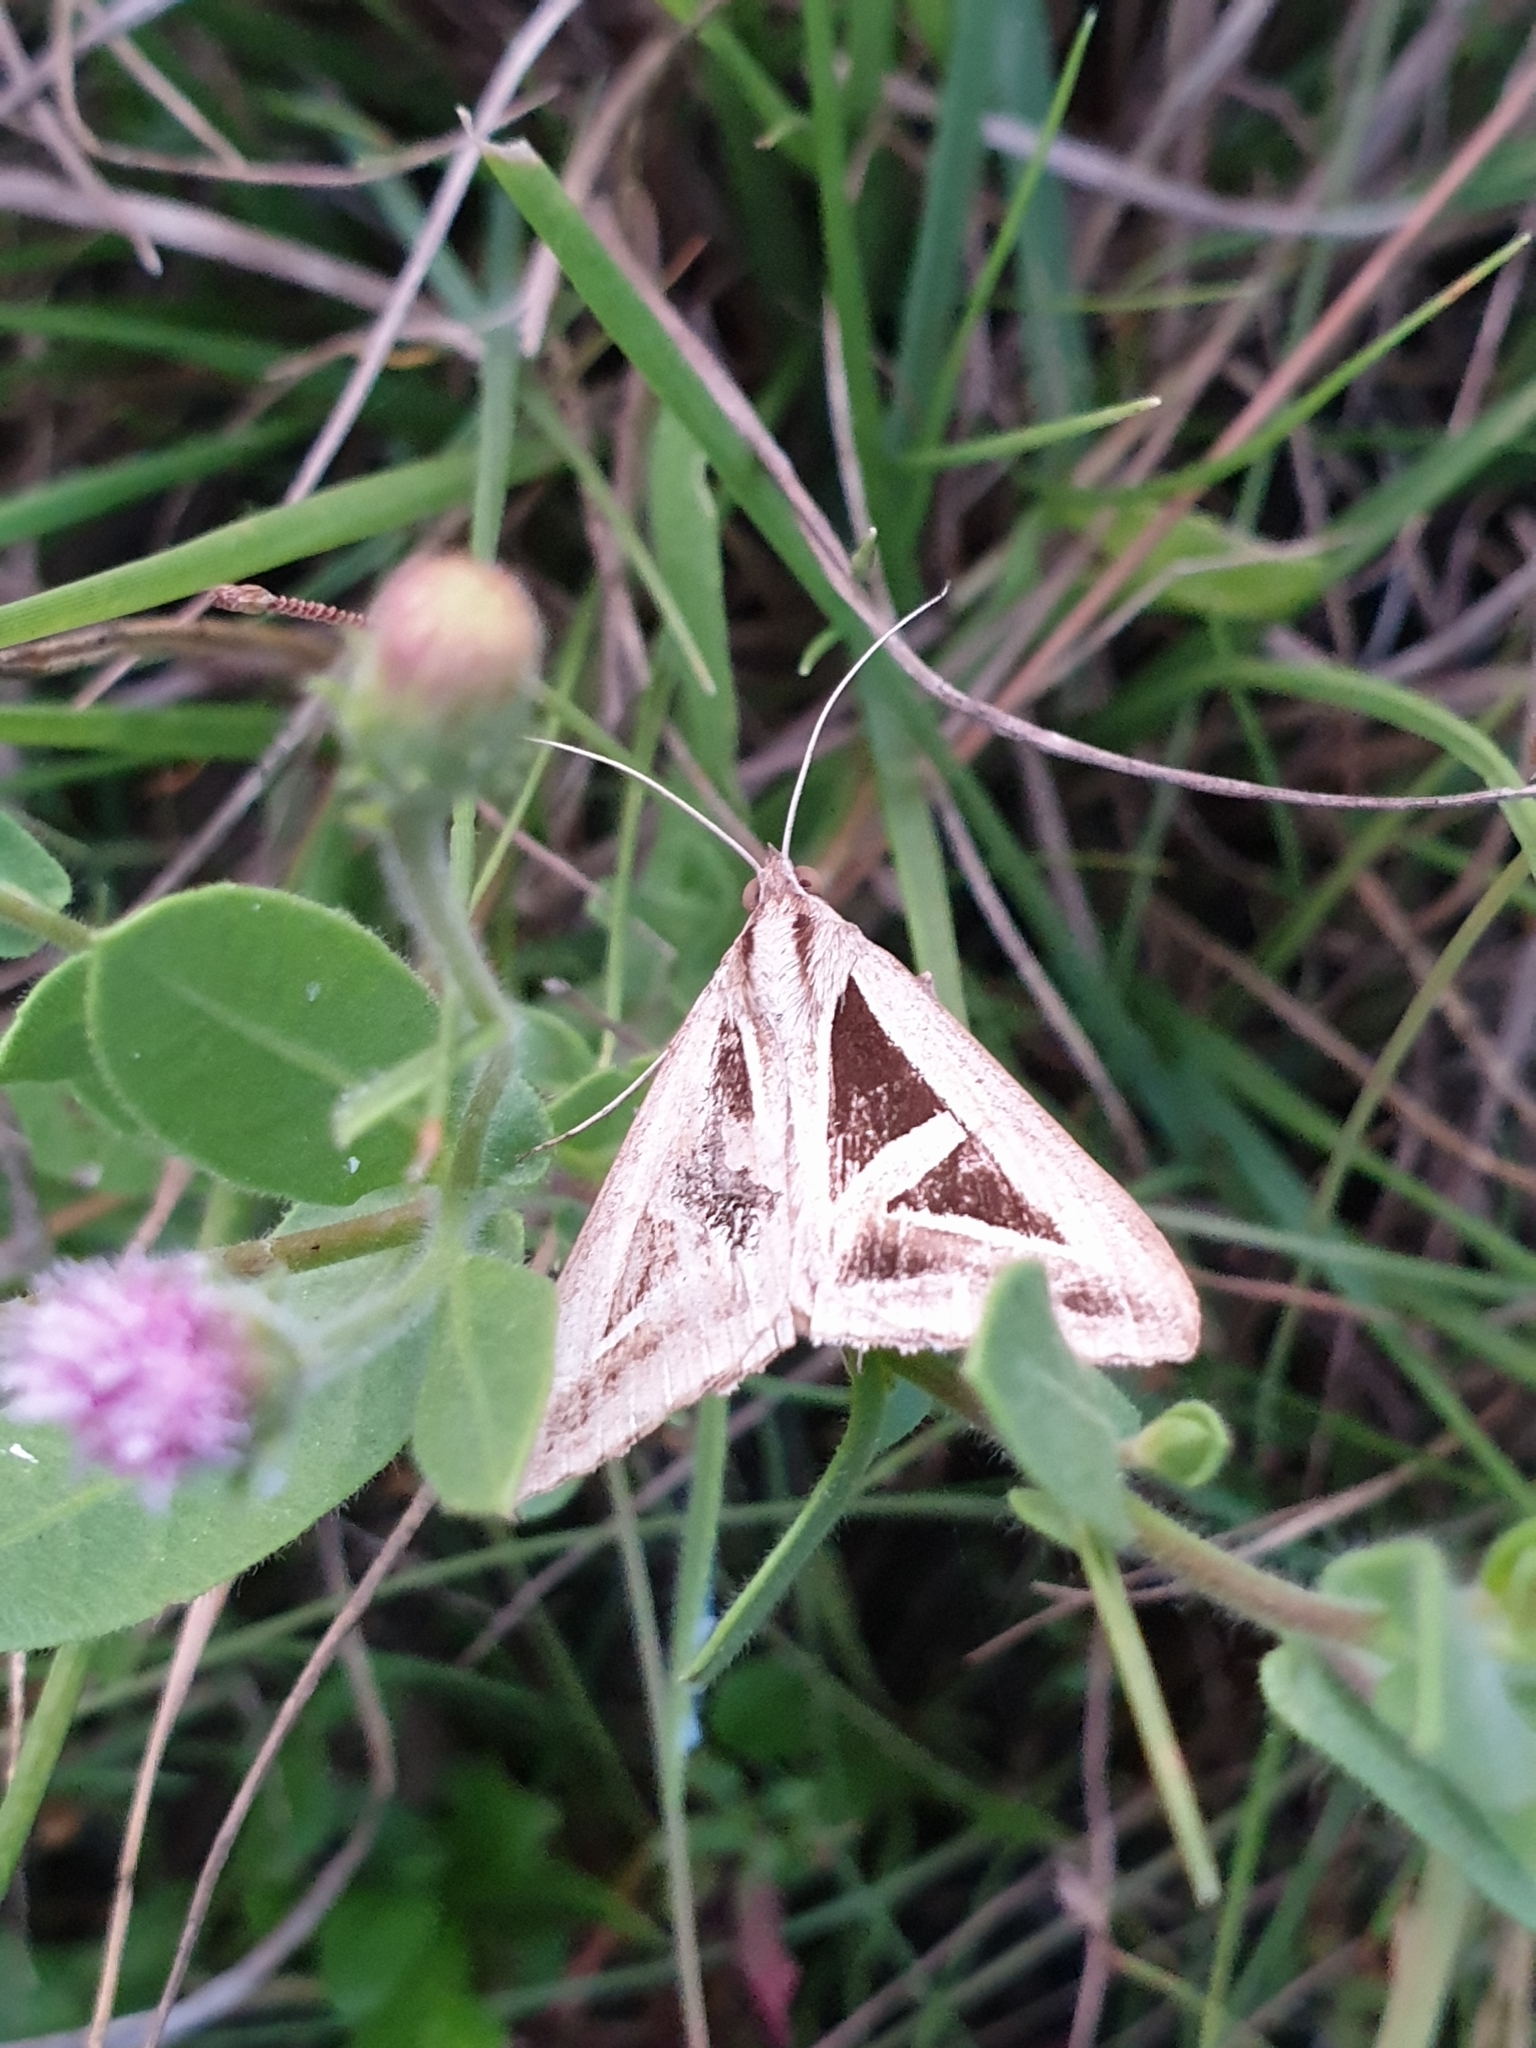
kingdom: Animalia
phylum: Arthropoda
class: Insecta
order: Lepidoptera
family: Erebidae
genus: Trigonodes
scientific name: Trigonodes hyppasia
